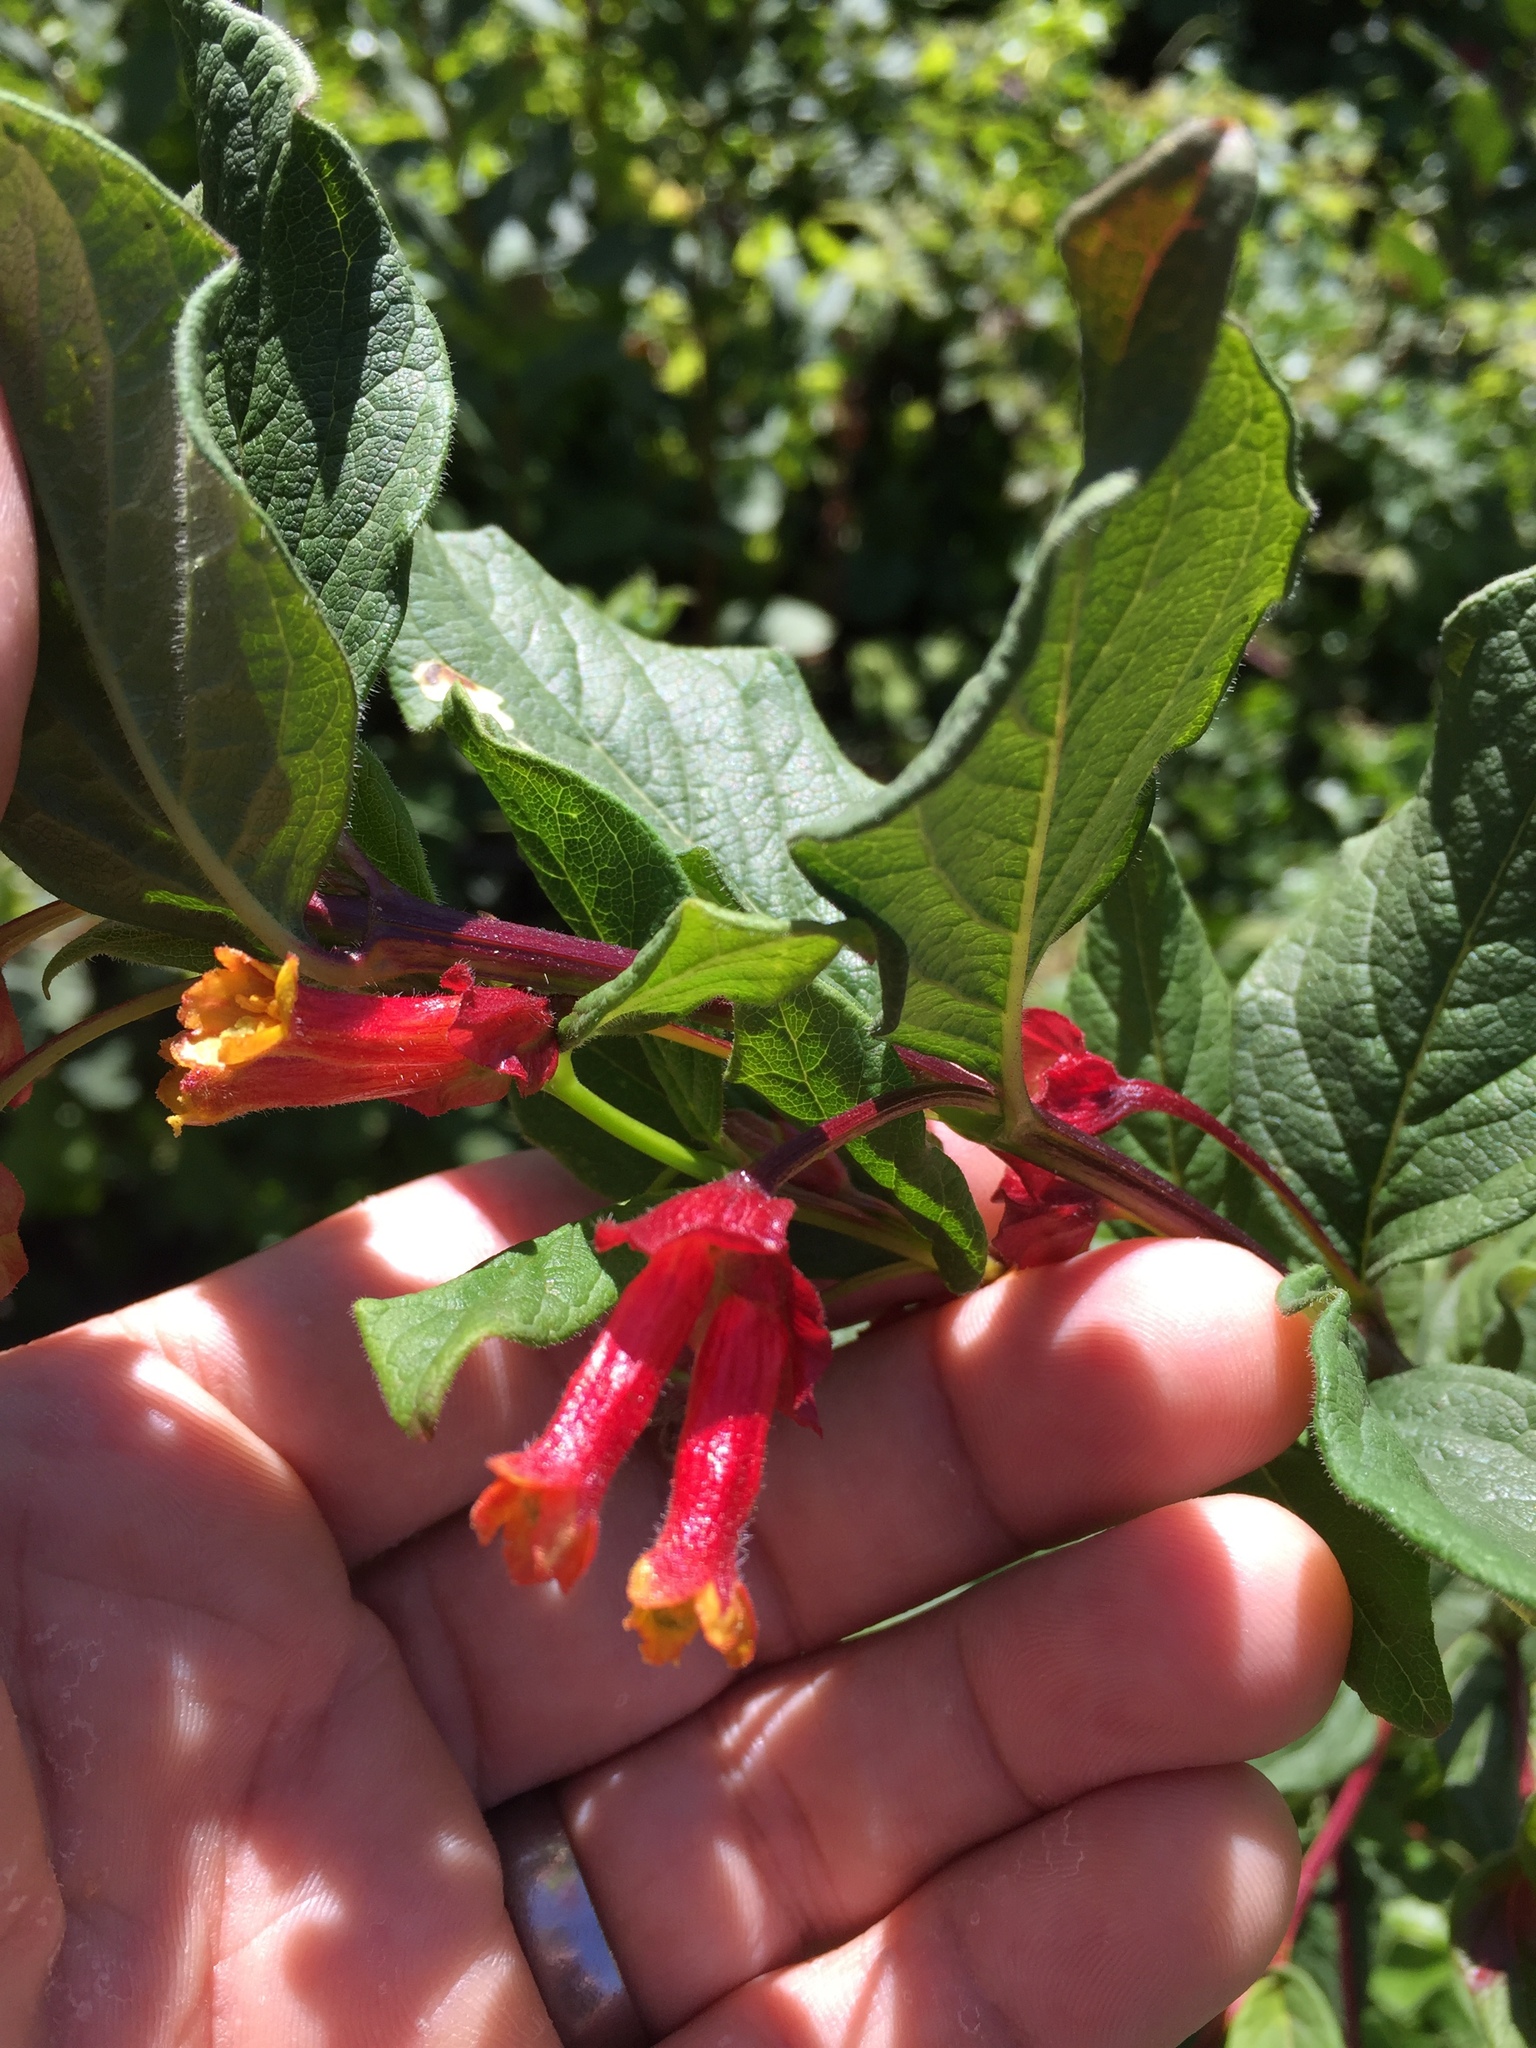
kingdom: Plantae
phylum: Tracheophyta
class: Magnoliopsida
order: Dipsacales
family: Caprifoliaceae
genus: Lonicera
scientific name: Lonicera involucrata
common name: Californian honeysuckle
